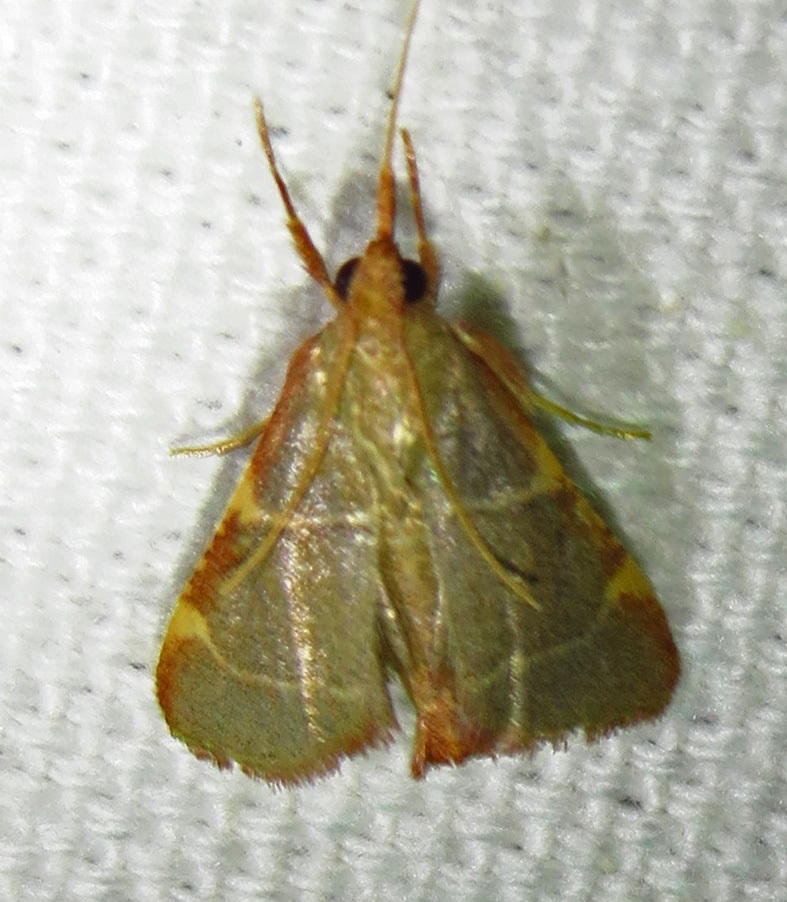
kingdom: Animalia
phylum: Arthropoda
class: Insecta
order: Lepidoptera
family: Pyralidae
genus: Hypsopygia
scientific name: Hypsopygia binodulalis
